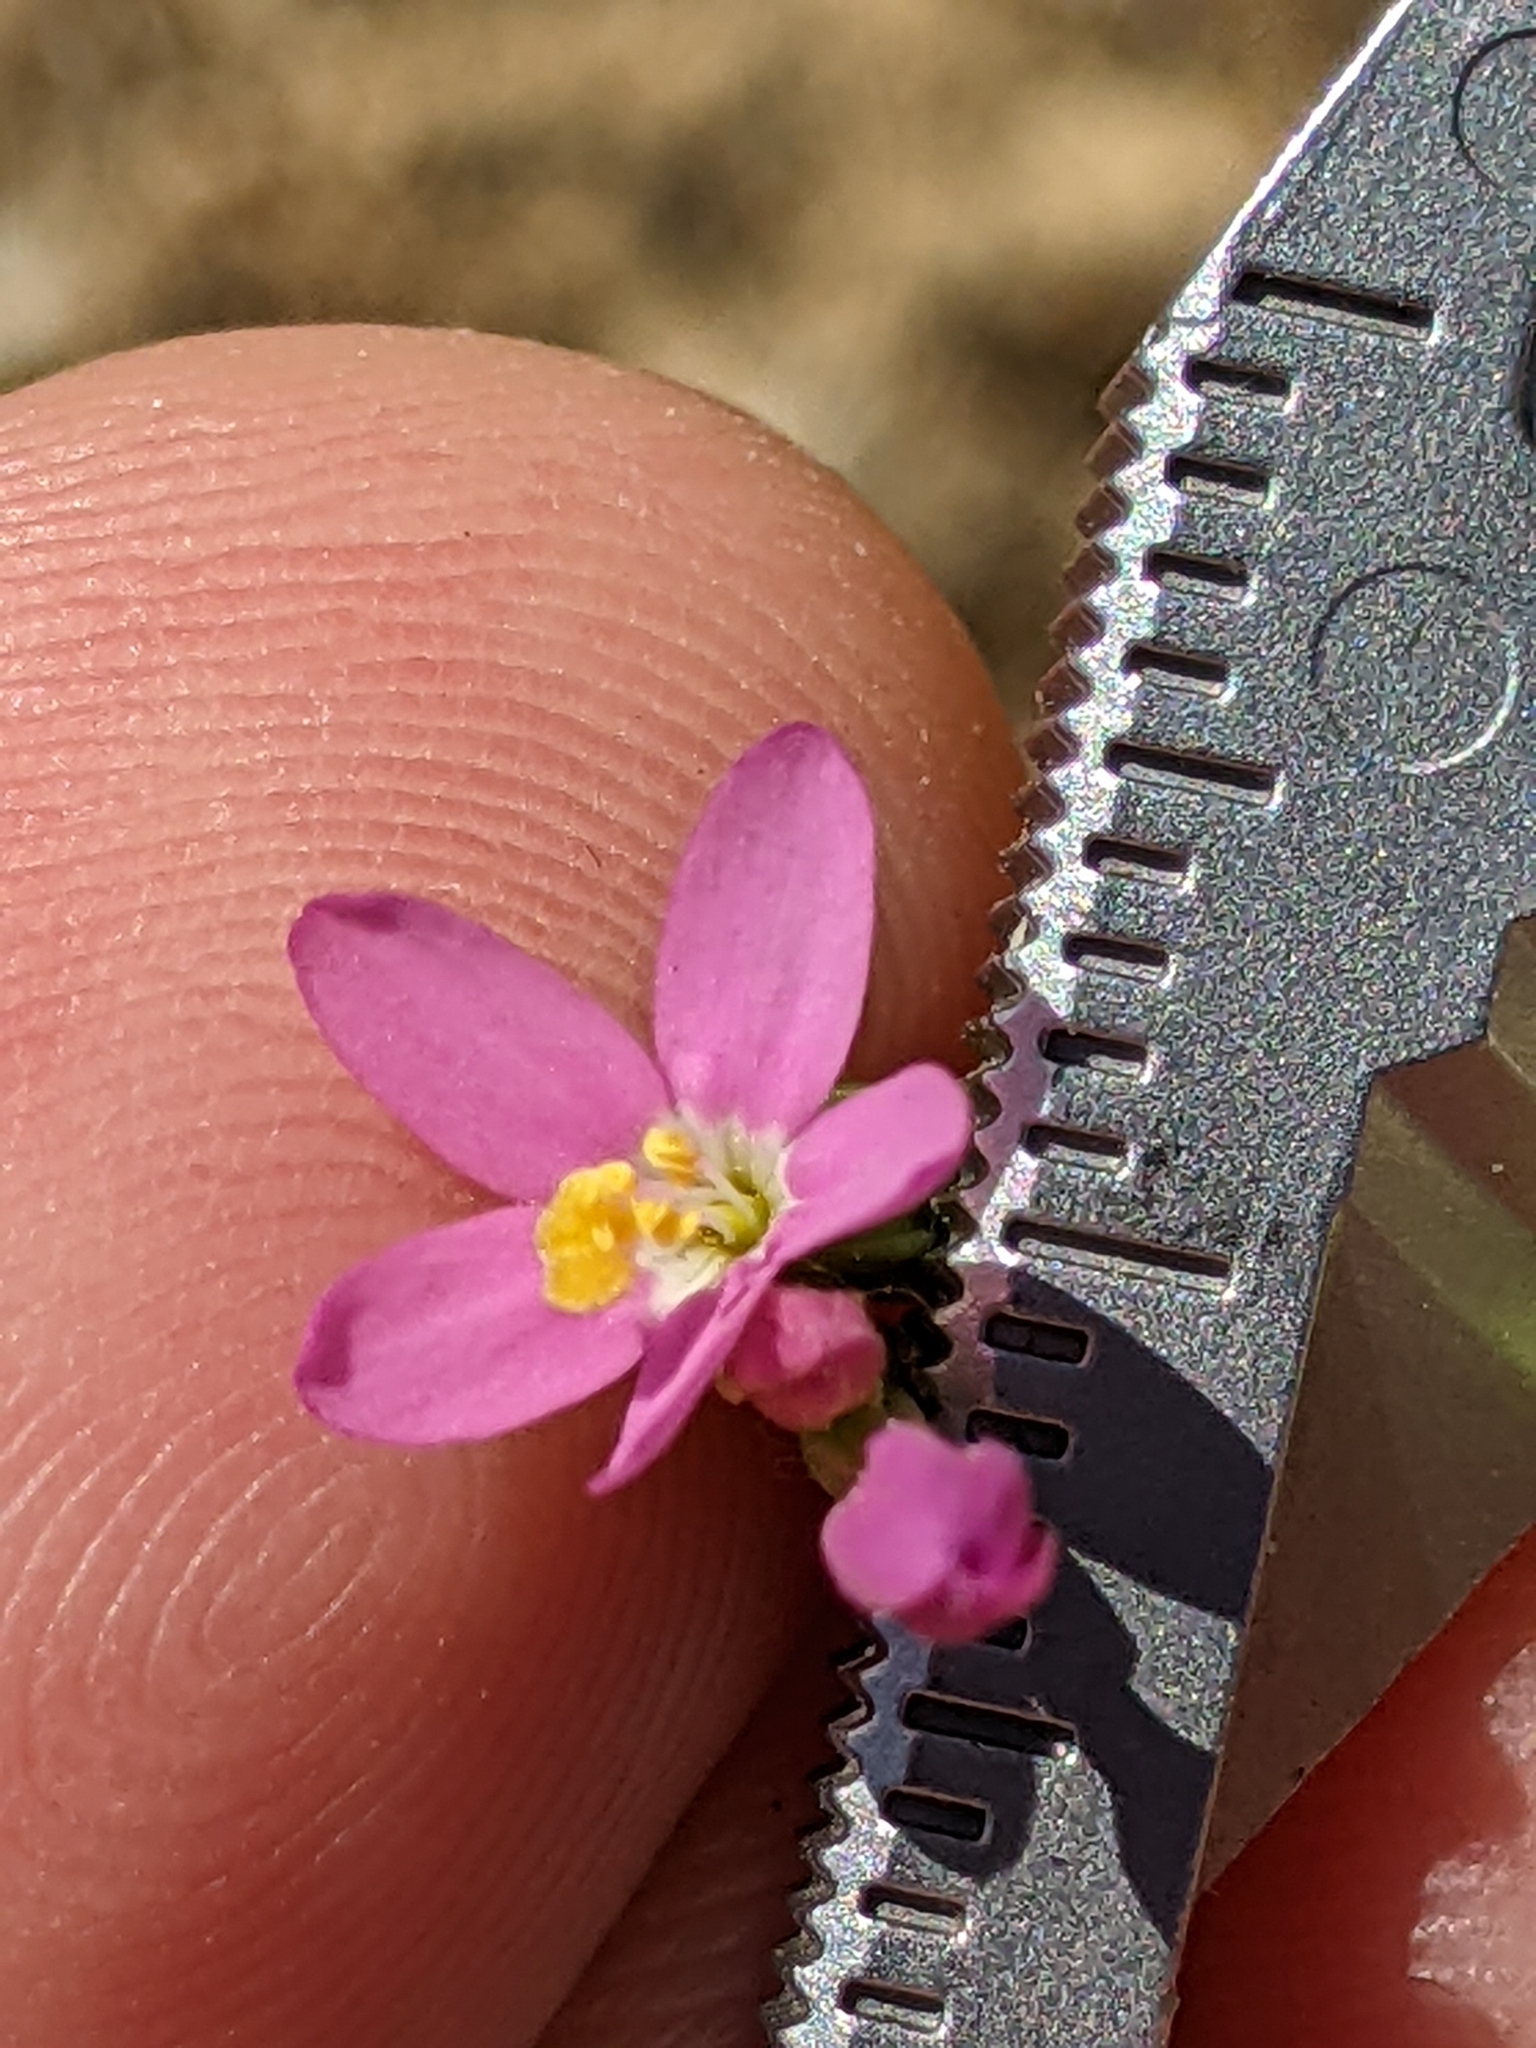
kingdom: Plantae
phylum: Tracheophyta
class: Magnoliopsida
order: Gentianales
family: Gentianaceae
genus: Zeltnera
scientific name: Zeltnera muhlenbergii
